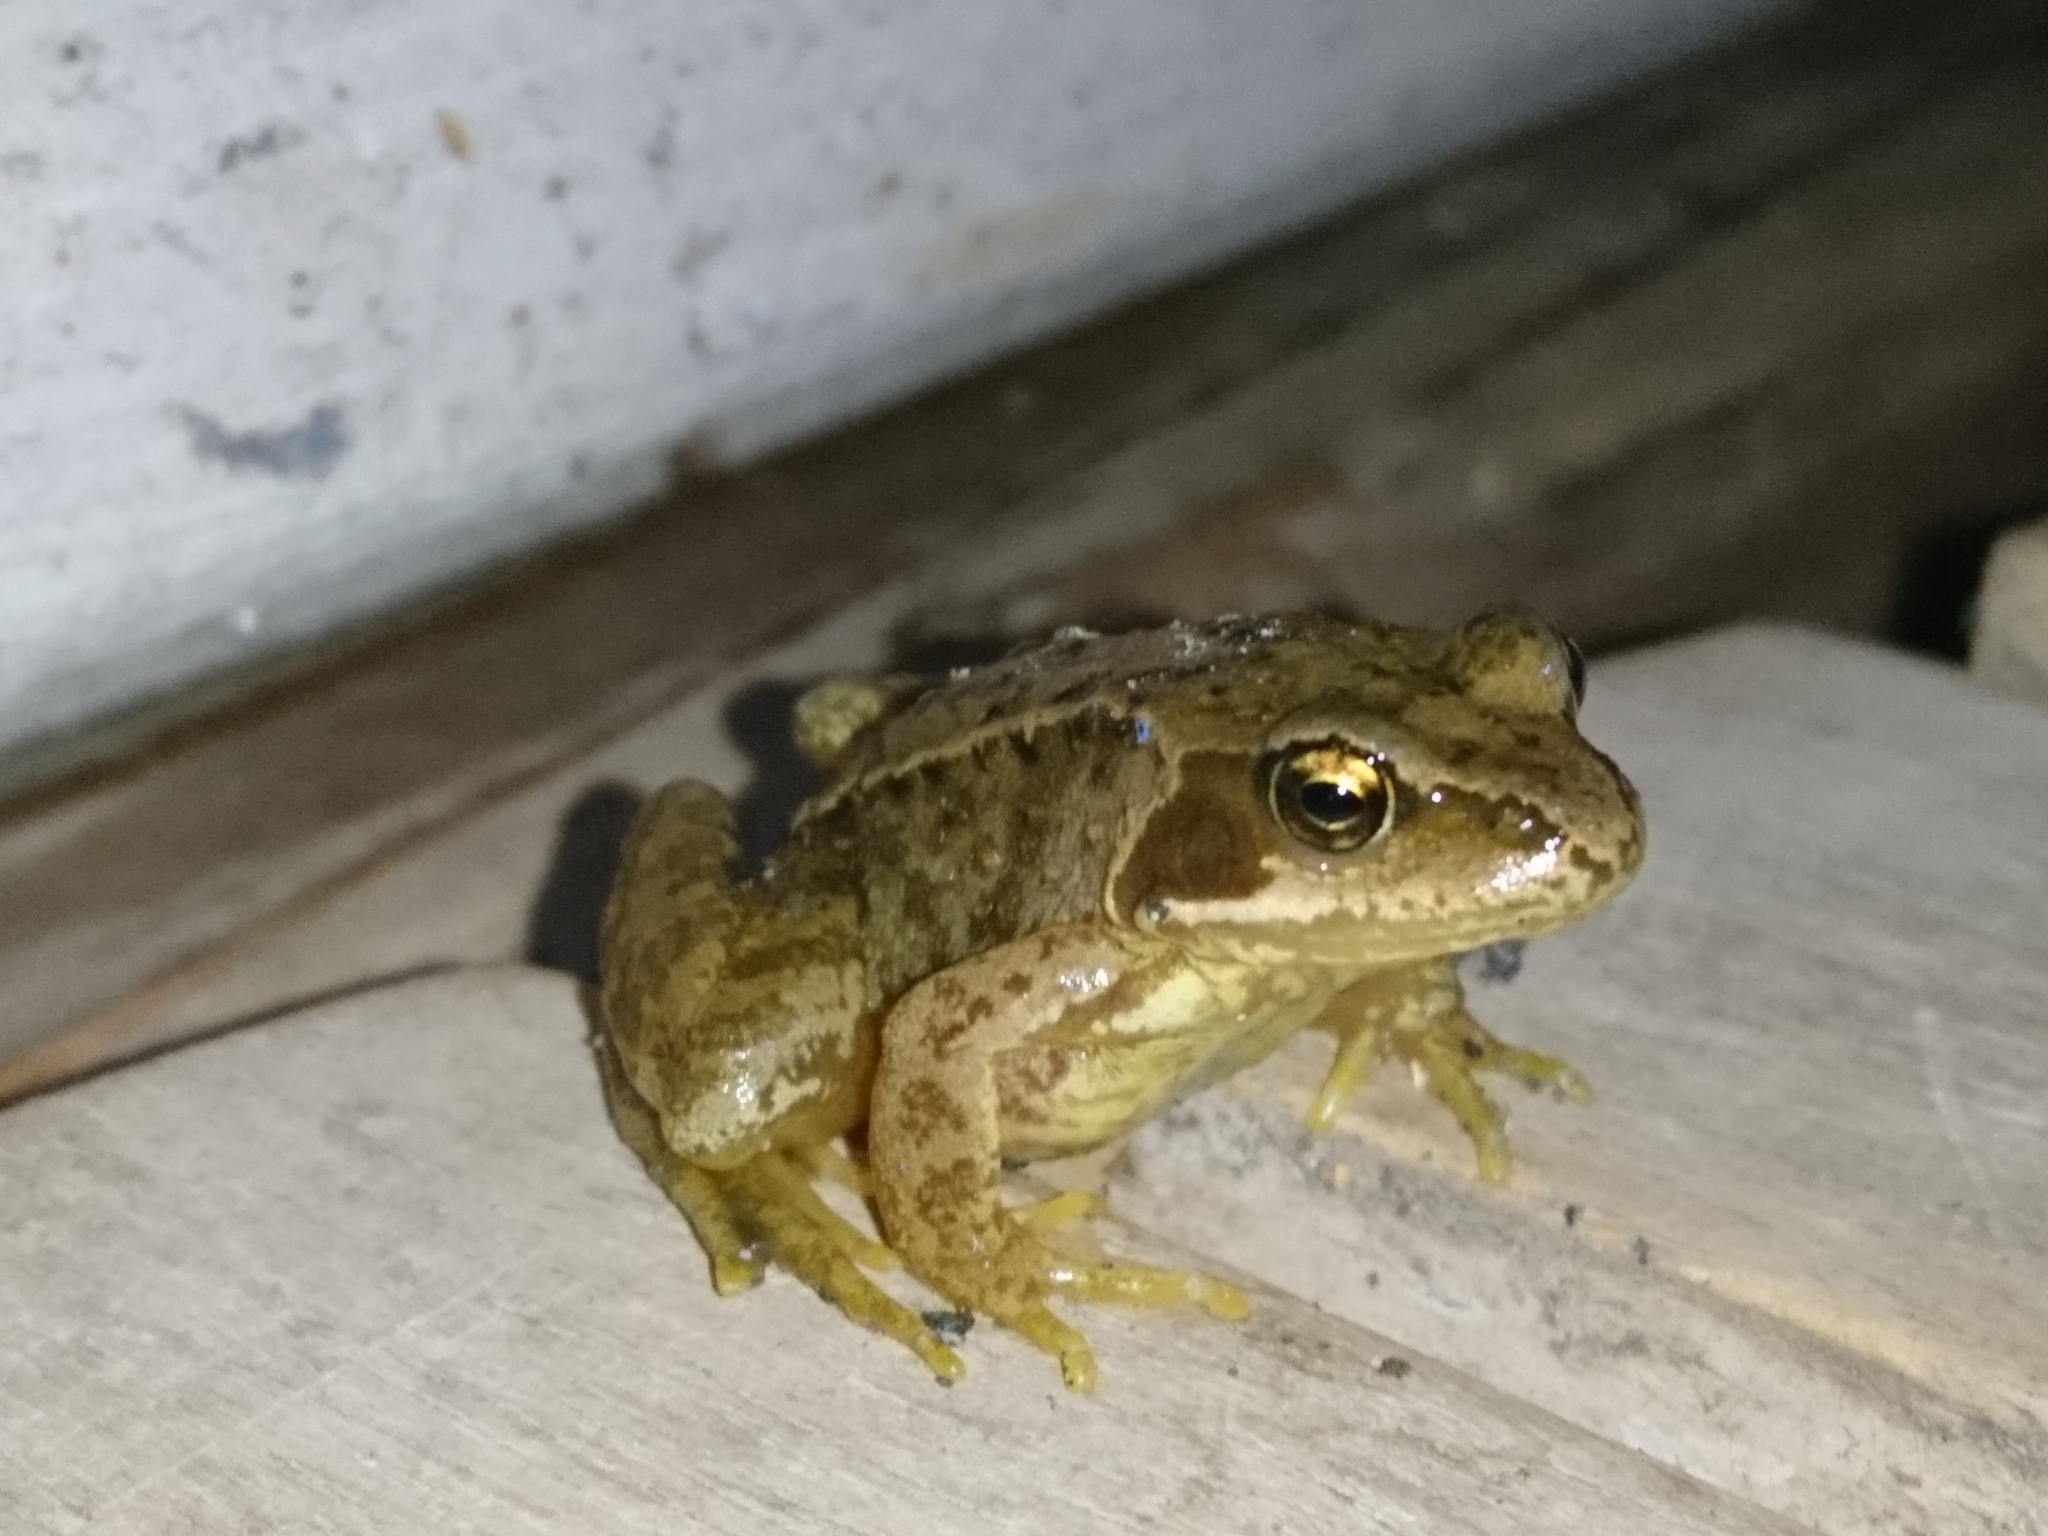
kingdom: Animalia
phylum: Chordata
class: Amphibia
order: Anura
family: Ranidae
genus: Rana
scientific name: Rana temporaria
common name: Common frog
